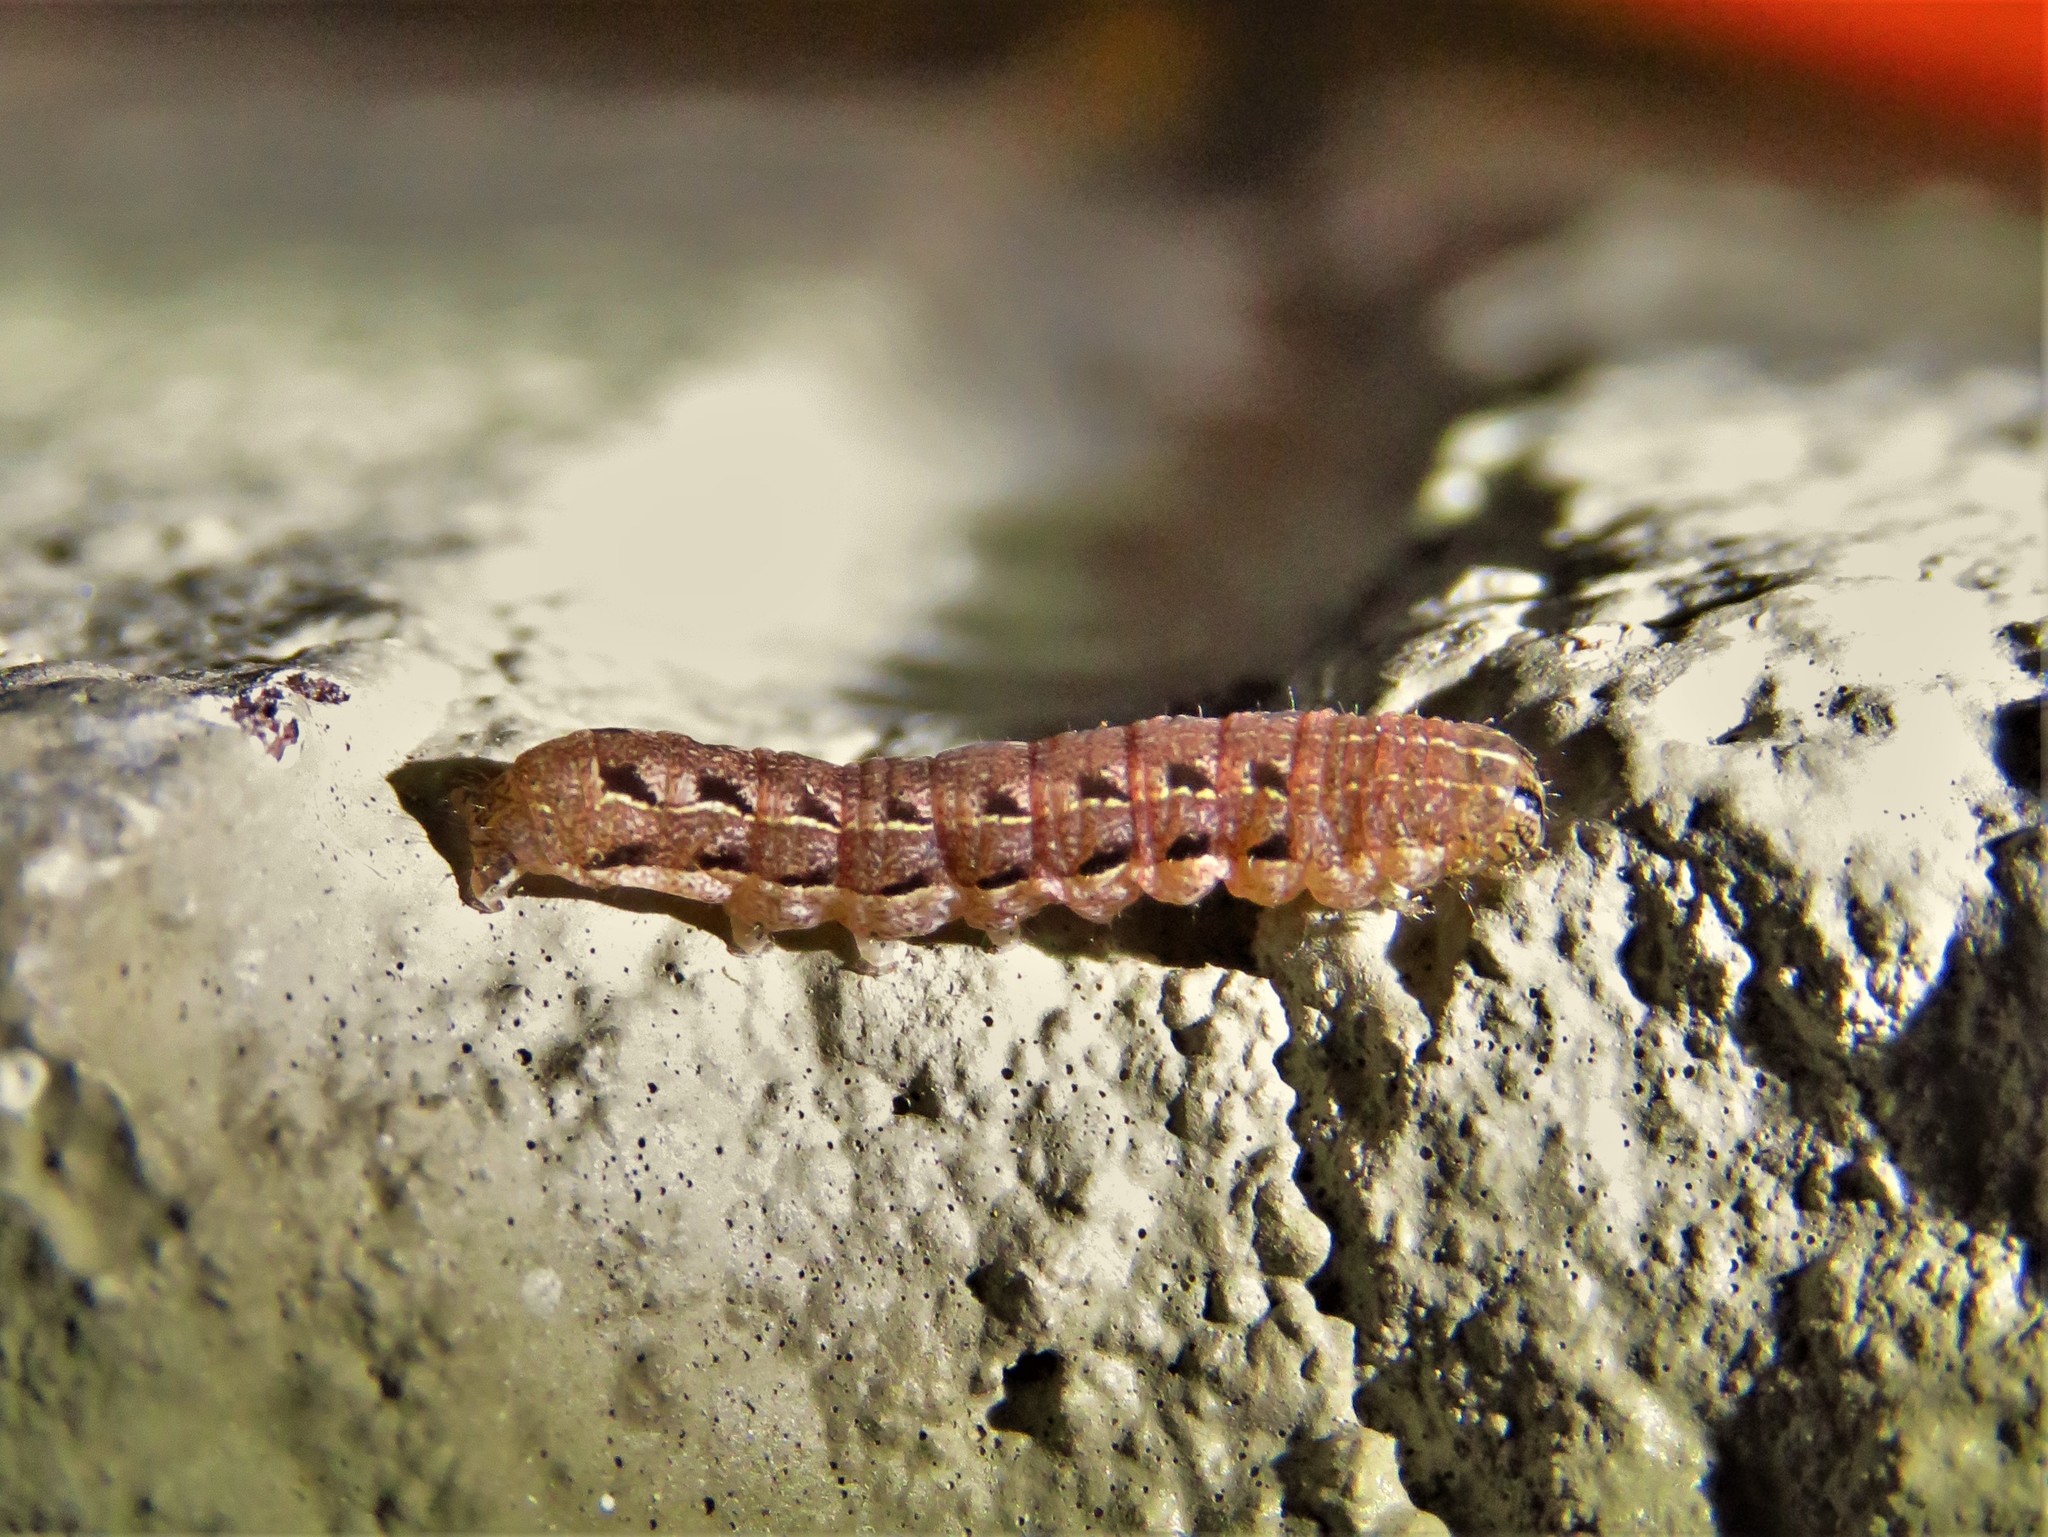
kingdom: Animalia
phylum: Arthropoda
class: Insecta
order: Lepidoptera
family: Noctuidae
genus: Agnorisma
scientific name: Agnorisma badinodis
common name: Pale-banded dart
